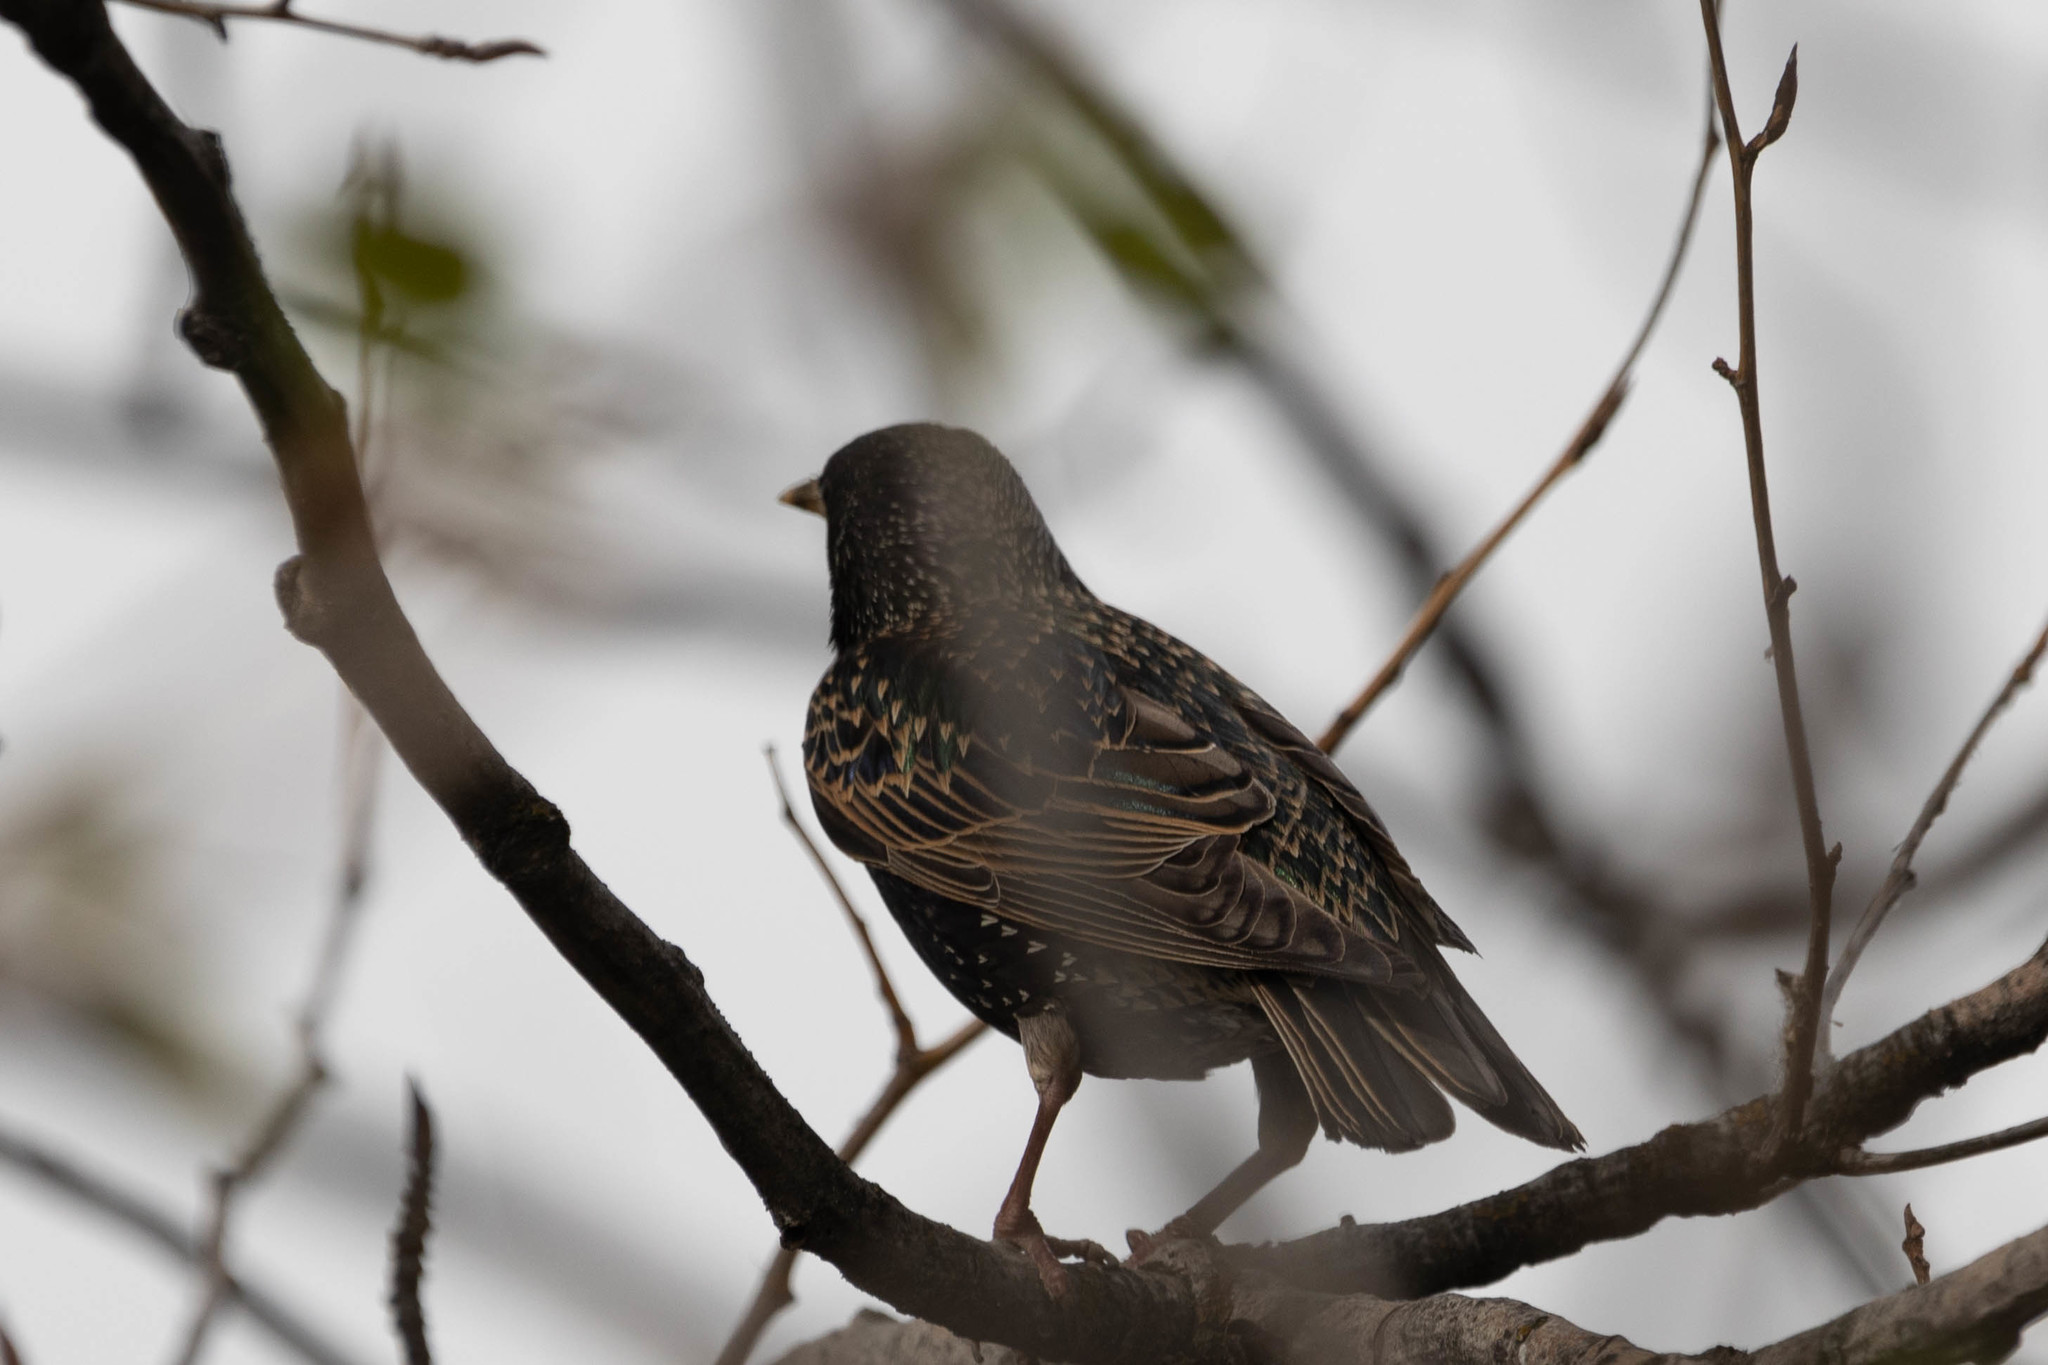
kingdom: Animalia
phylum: Chordata
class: Aves
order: Passeriformes
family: Sturnidae
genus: Sturnus
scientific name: Sturnus vulgaris
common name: Common starling
